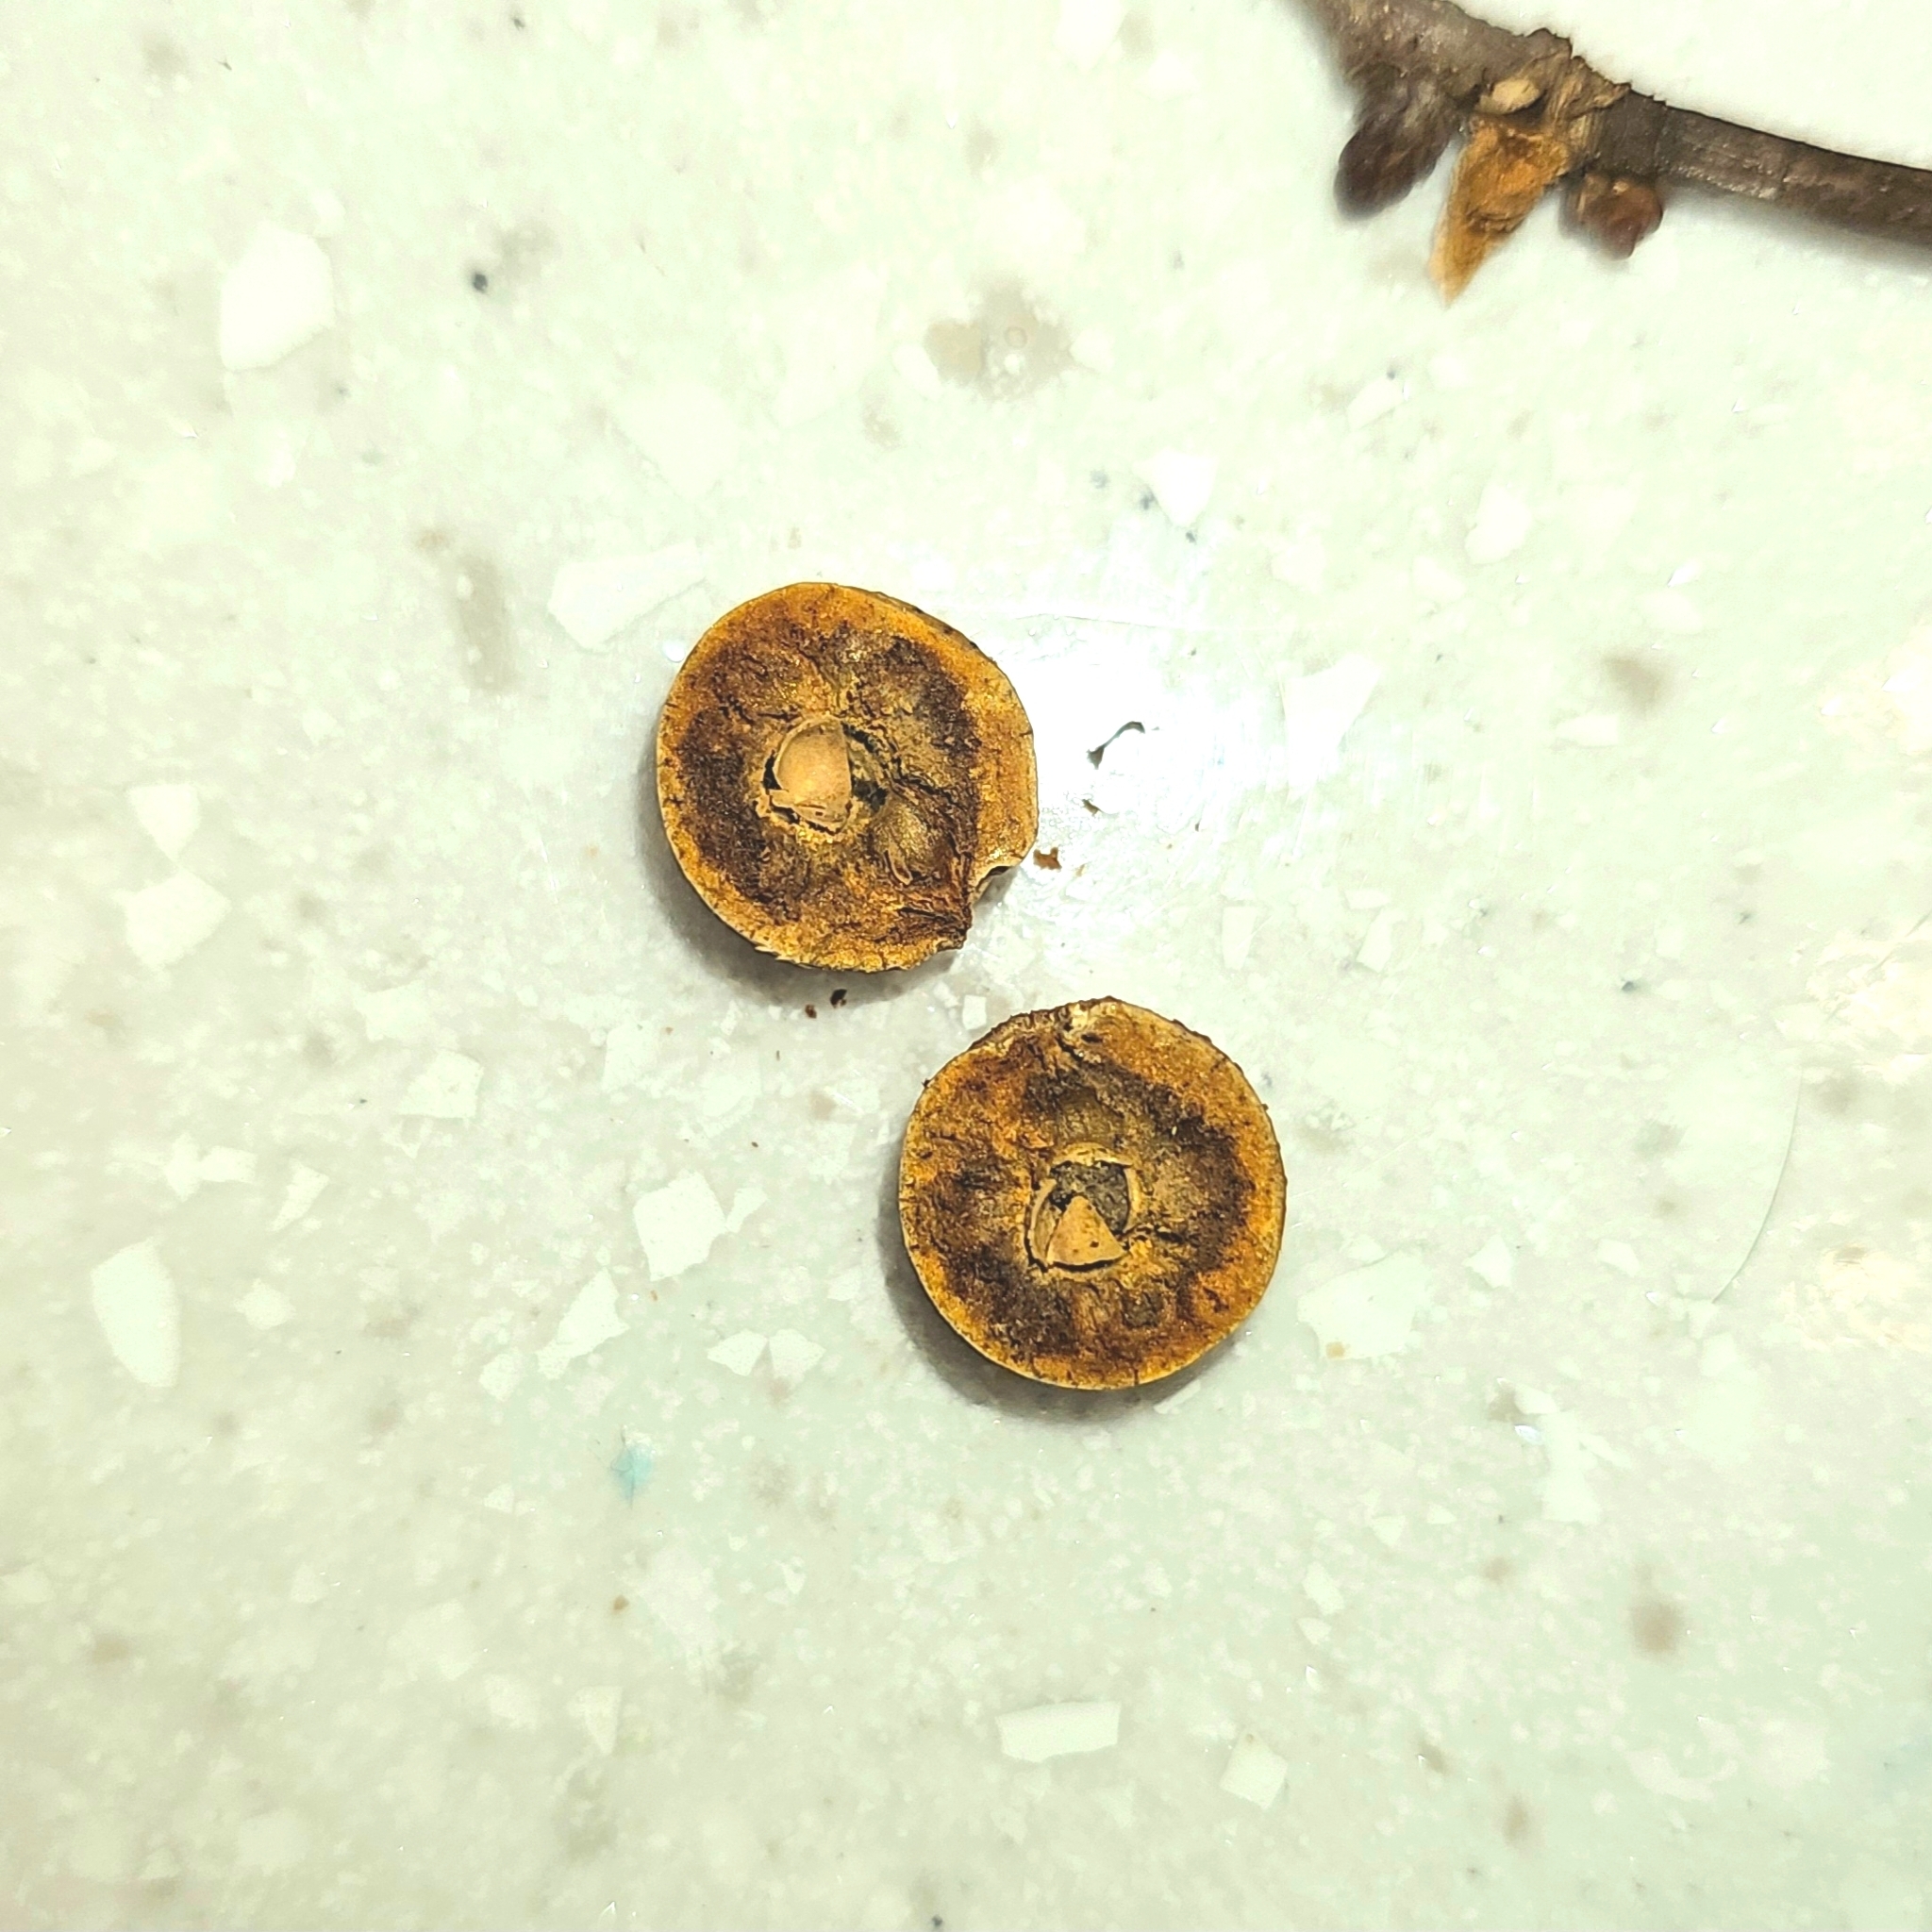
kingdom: Animalia
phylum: Arthropoda
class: Insecta
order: Hymenoptera
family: Cynipidae
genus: Disholcaspis
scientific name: Disholcaspis quercusglobulus
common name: Round bullet gall wasp
